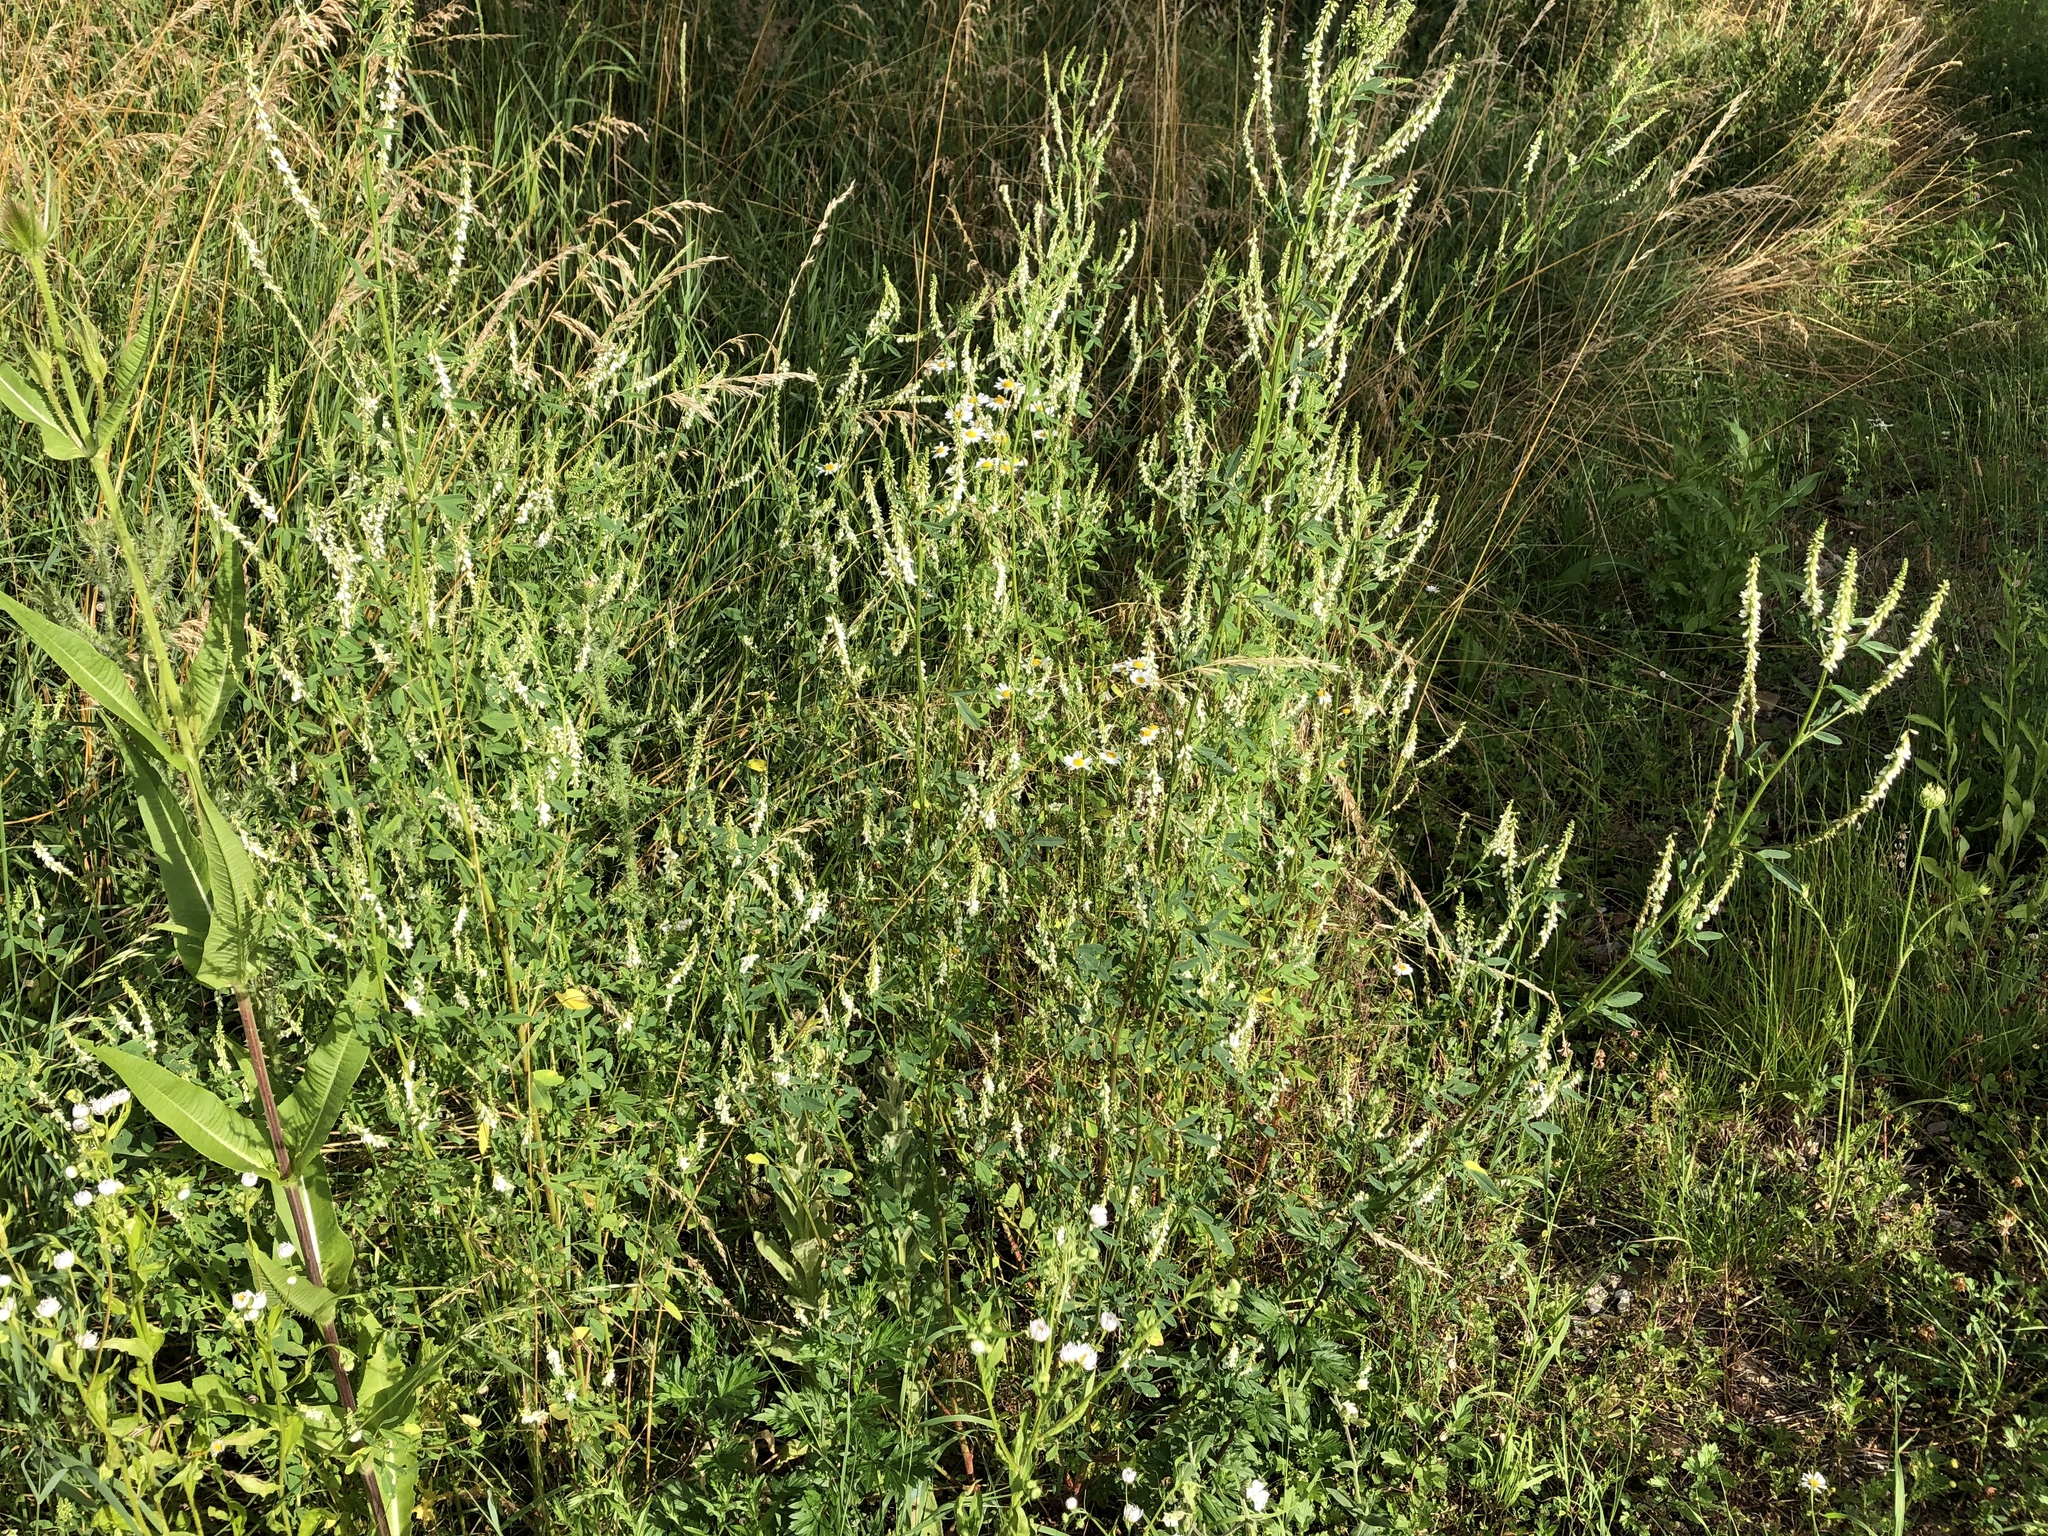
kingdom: Plantae
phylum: Tracheophyta
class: Magnoliopsida
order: Fabales
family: Fabaceae
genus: Melilotus
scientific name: Melilotus albus
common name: White melilot
